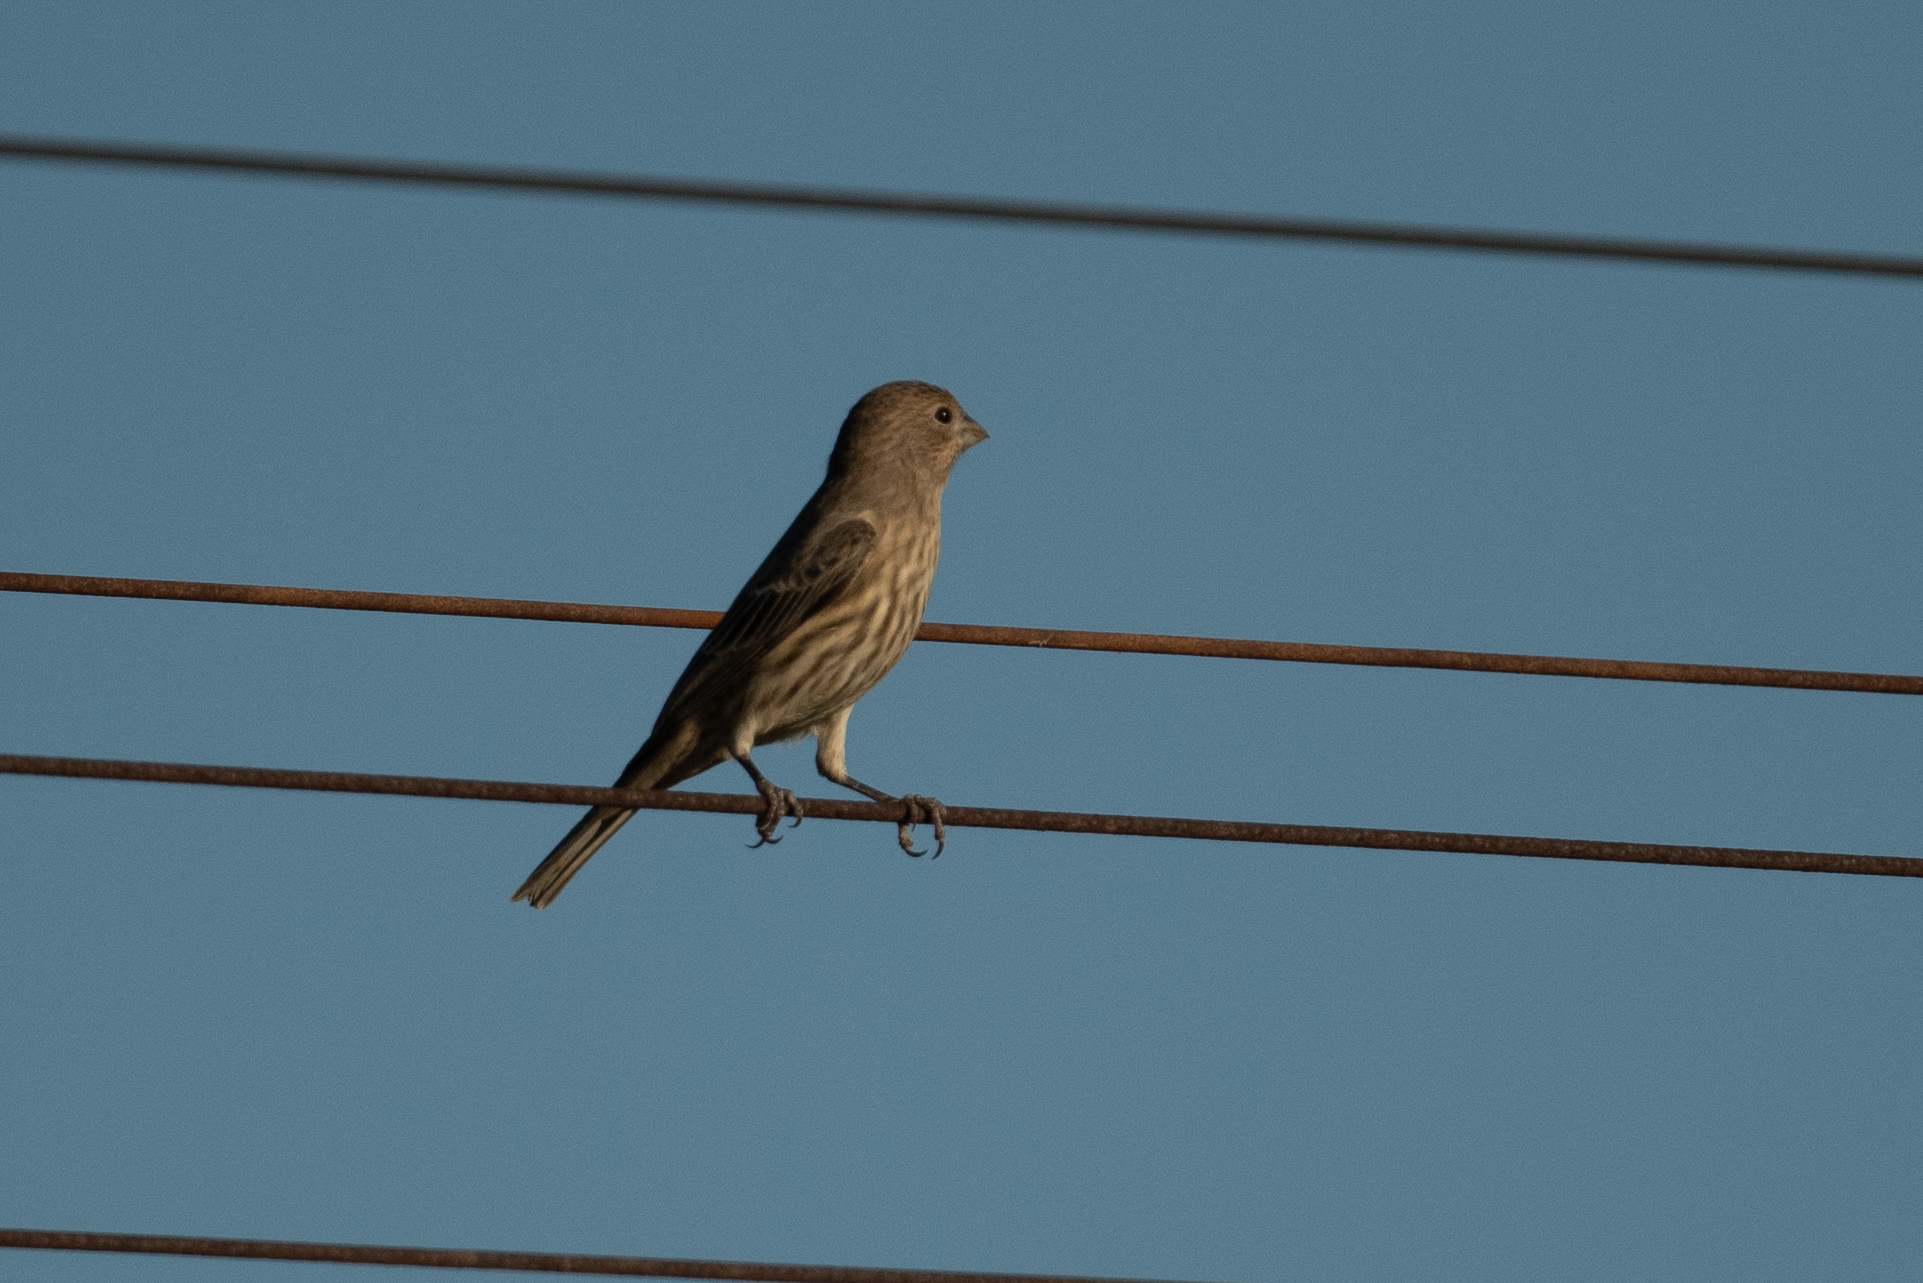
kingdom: Animalia
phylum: Chordata
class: Aves
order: Passeriformes
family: Fringillidae
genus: Haemorhous
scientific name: Haemorhous mexicanus
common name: House finch
